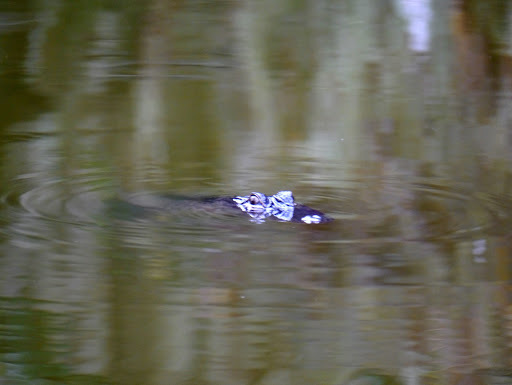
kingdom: Animalia
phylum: Chordata
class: Crocodylia
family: Alligatoridae
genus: Alligator
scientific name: Alligator mississippiensis
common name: American alligator
